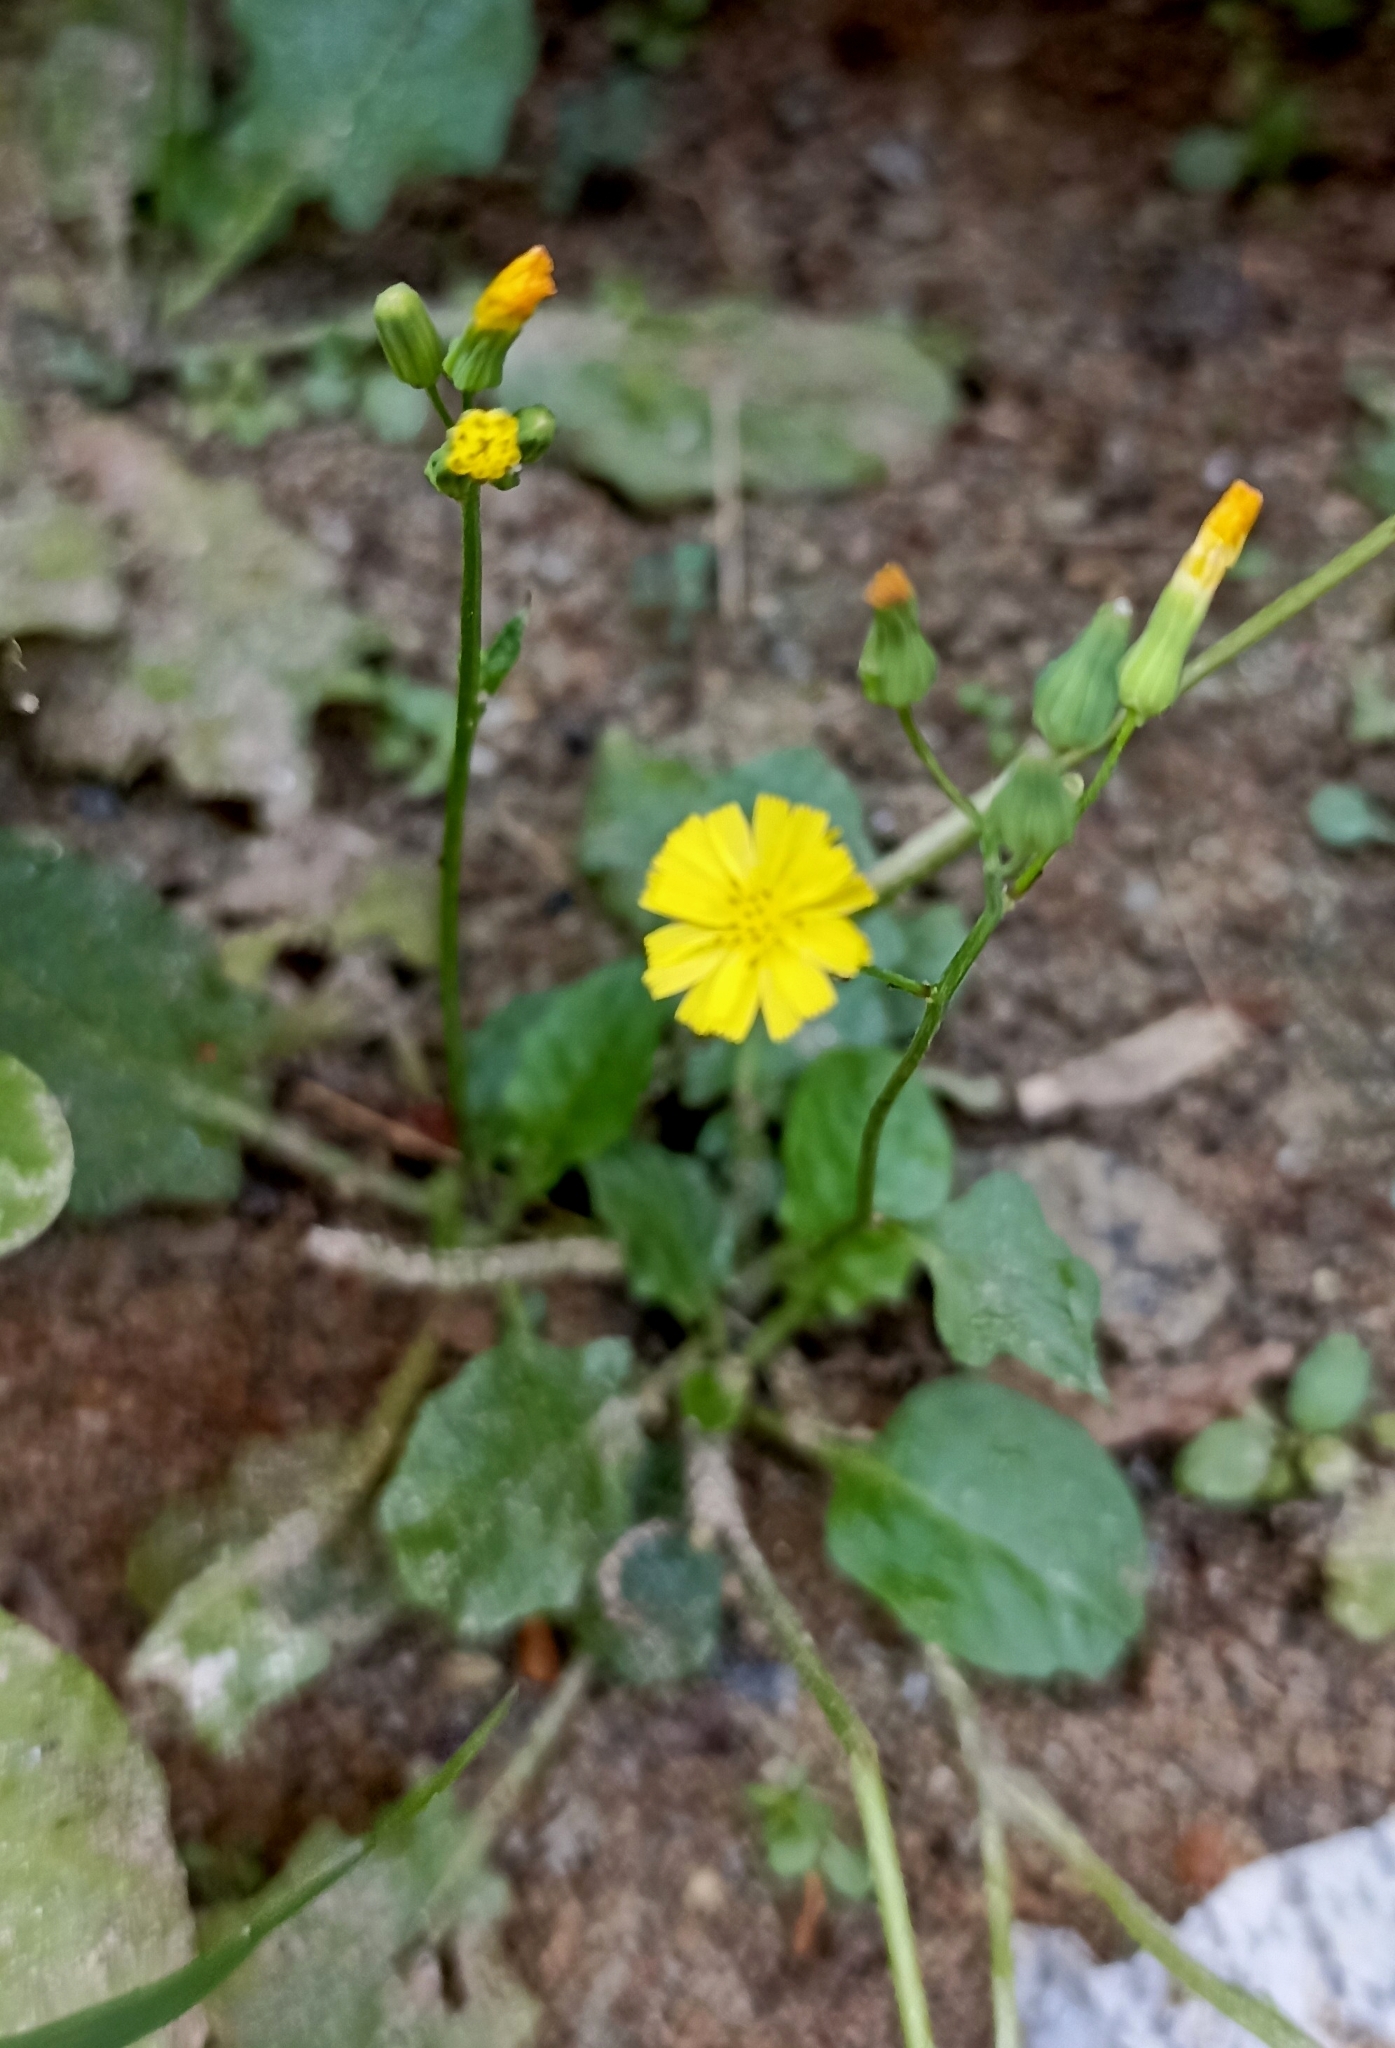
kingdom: Plantae
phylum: Tracheophyta
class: Magnoliopsida
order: Asterales
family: Asteraceae
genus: Youngia
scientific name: Youngia japonica
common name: Oriental false hawksbeard
